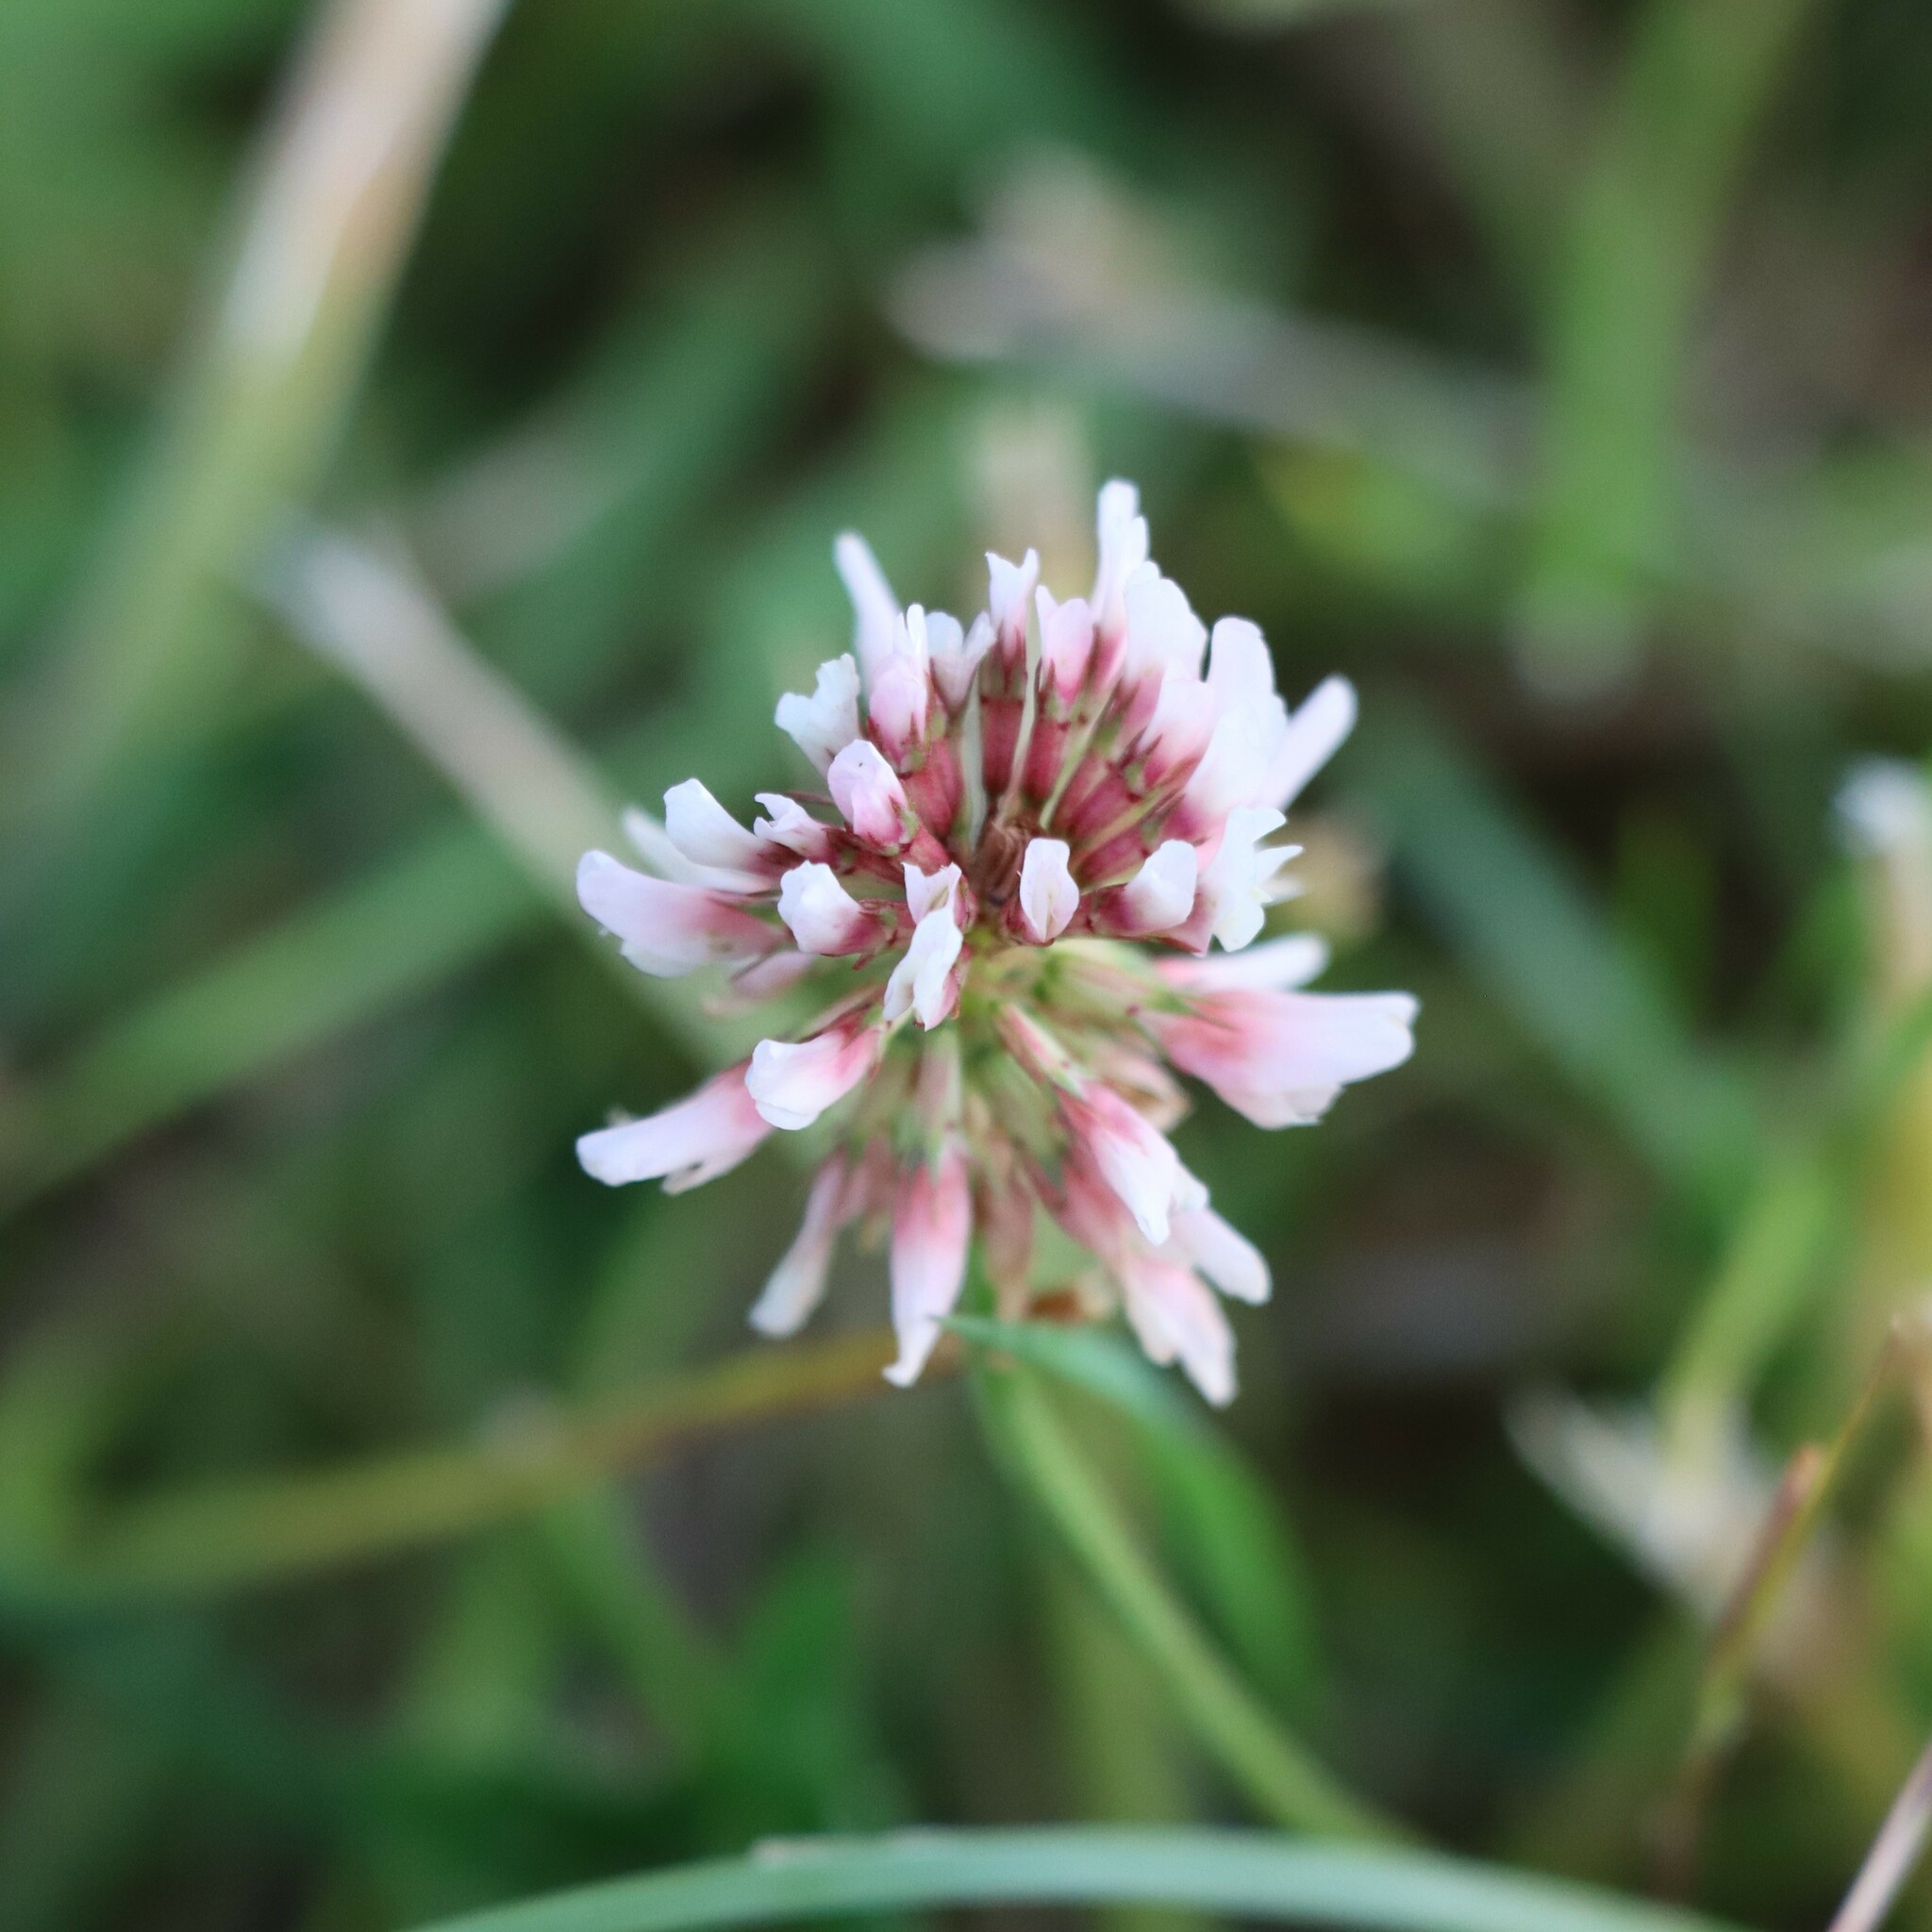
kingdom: Plantae
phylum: Tracheophyta
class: Magnoliopsida
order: Fabales
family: Fabaceae
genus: Trifolium
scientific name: Trifolium repens
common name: White clover
